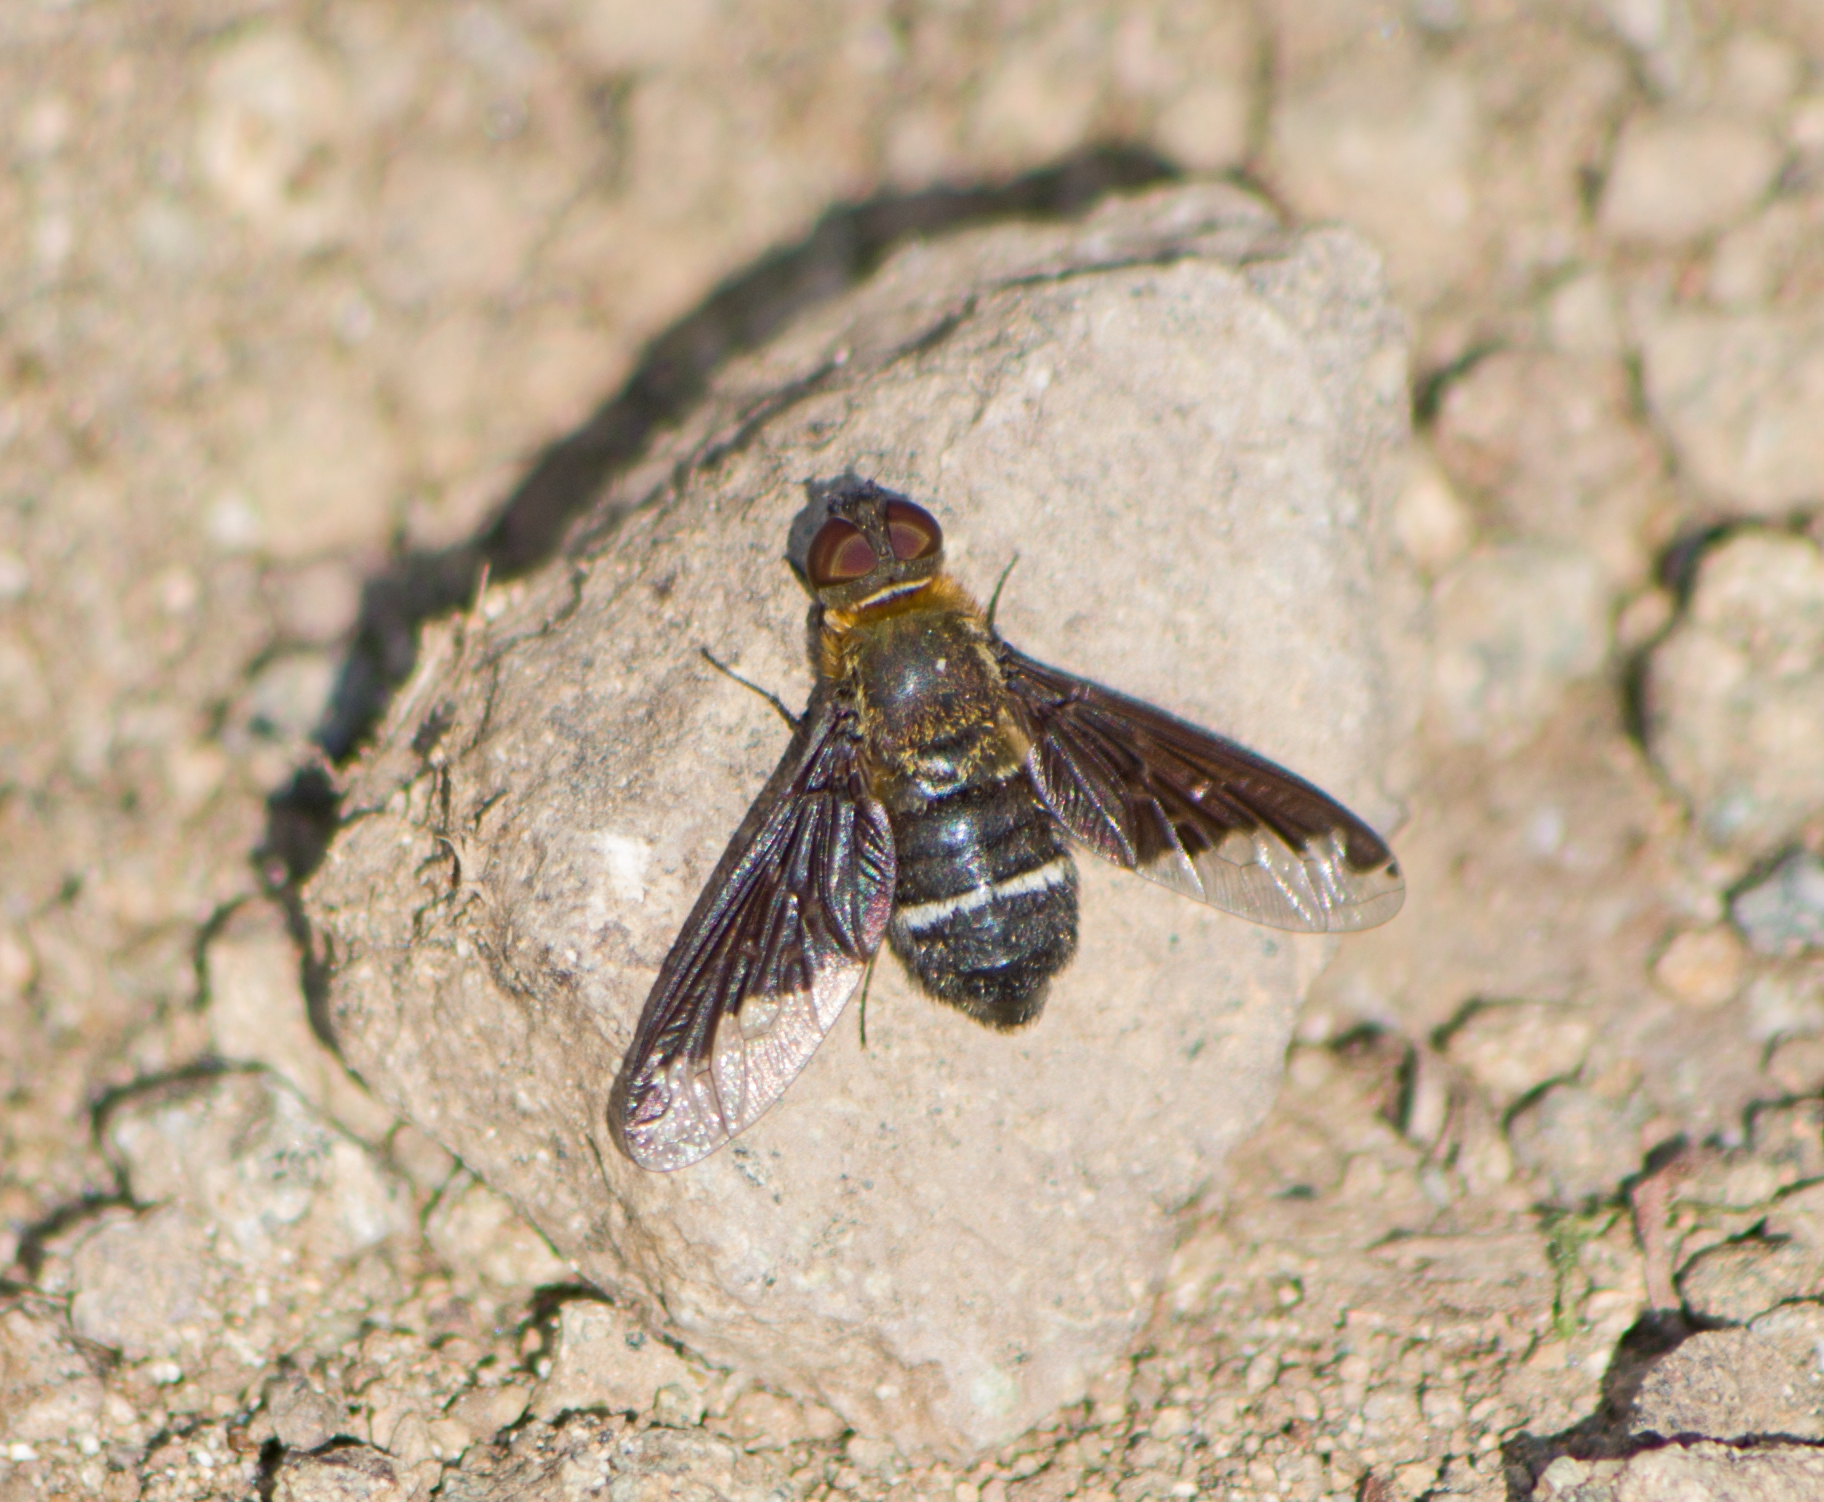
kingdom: Animalia
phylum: Arthropoda
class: Insecta
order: Diptera
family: Bombyliidae
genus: Hemipenthes
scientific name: Hemipenthes velutina
